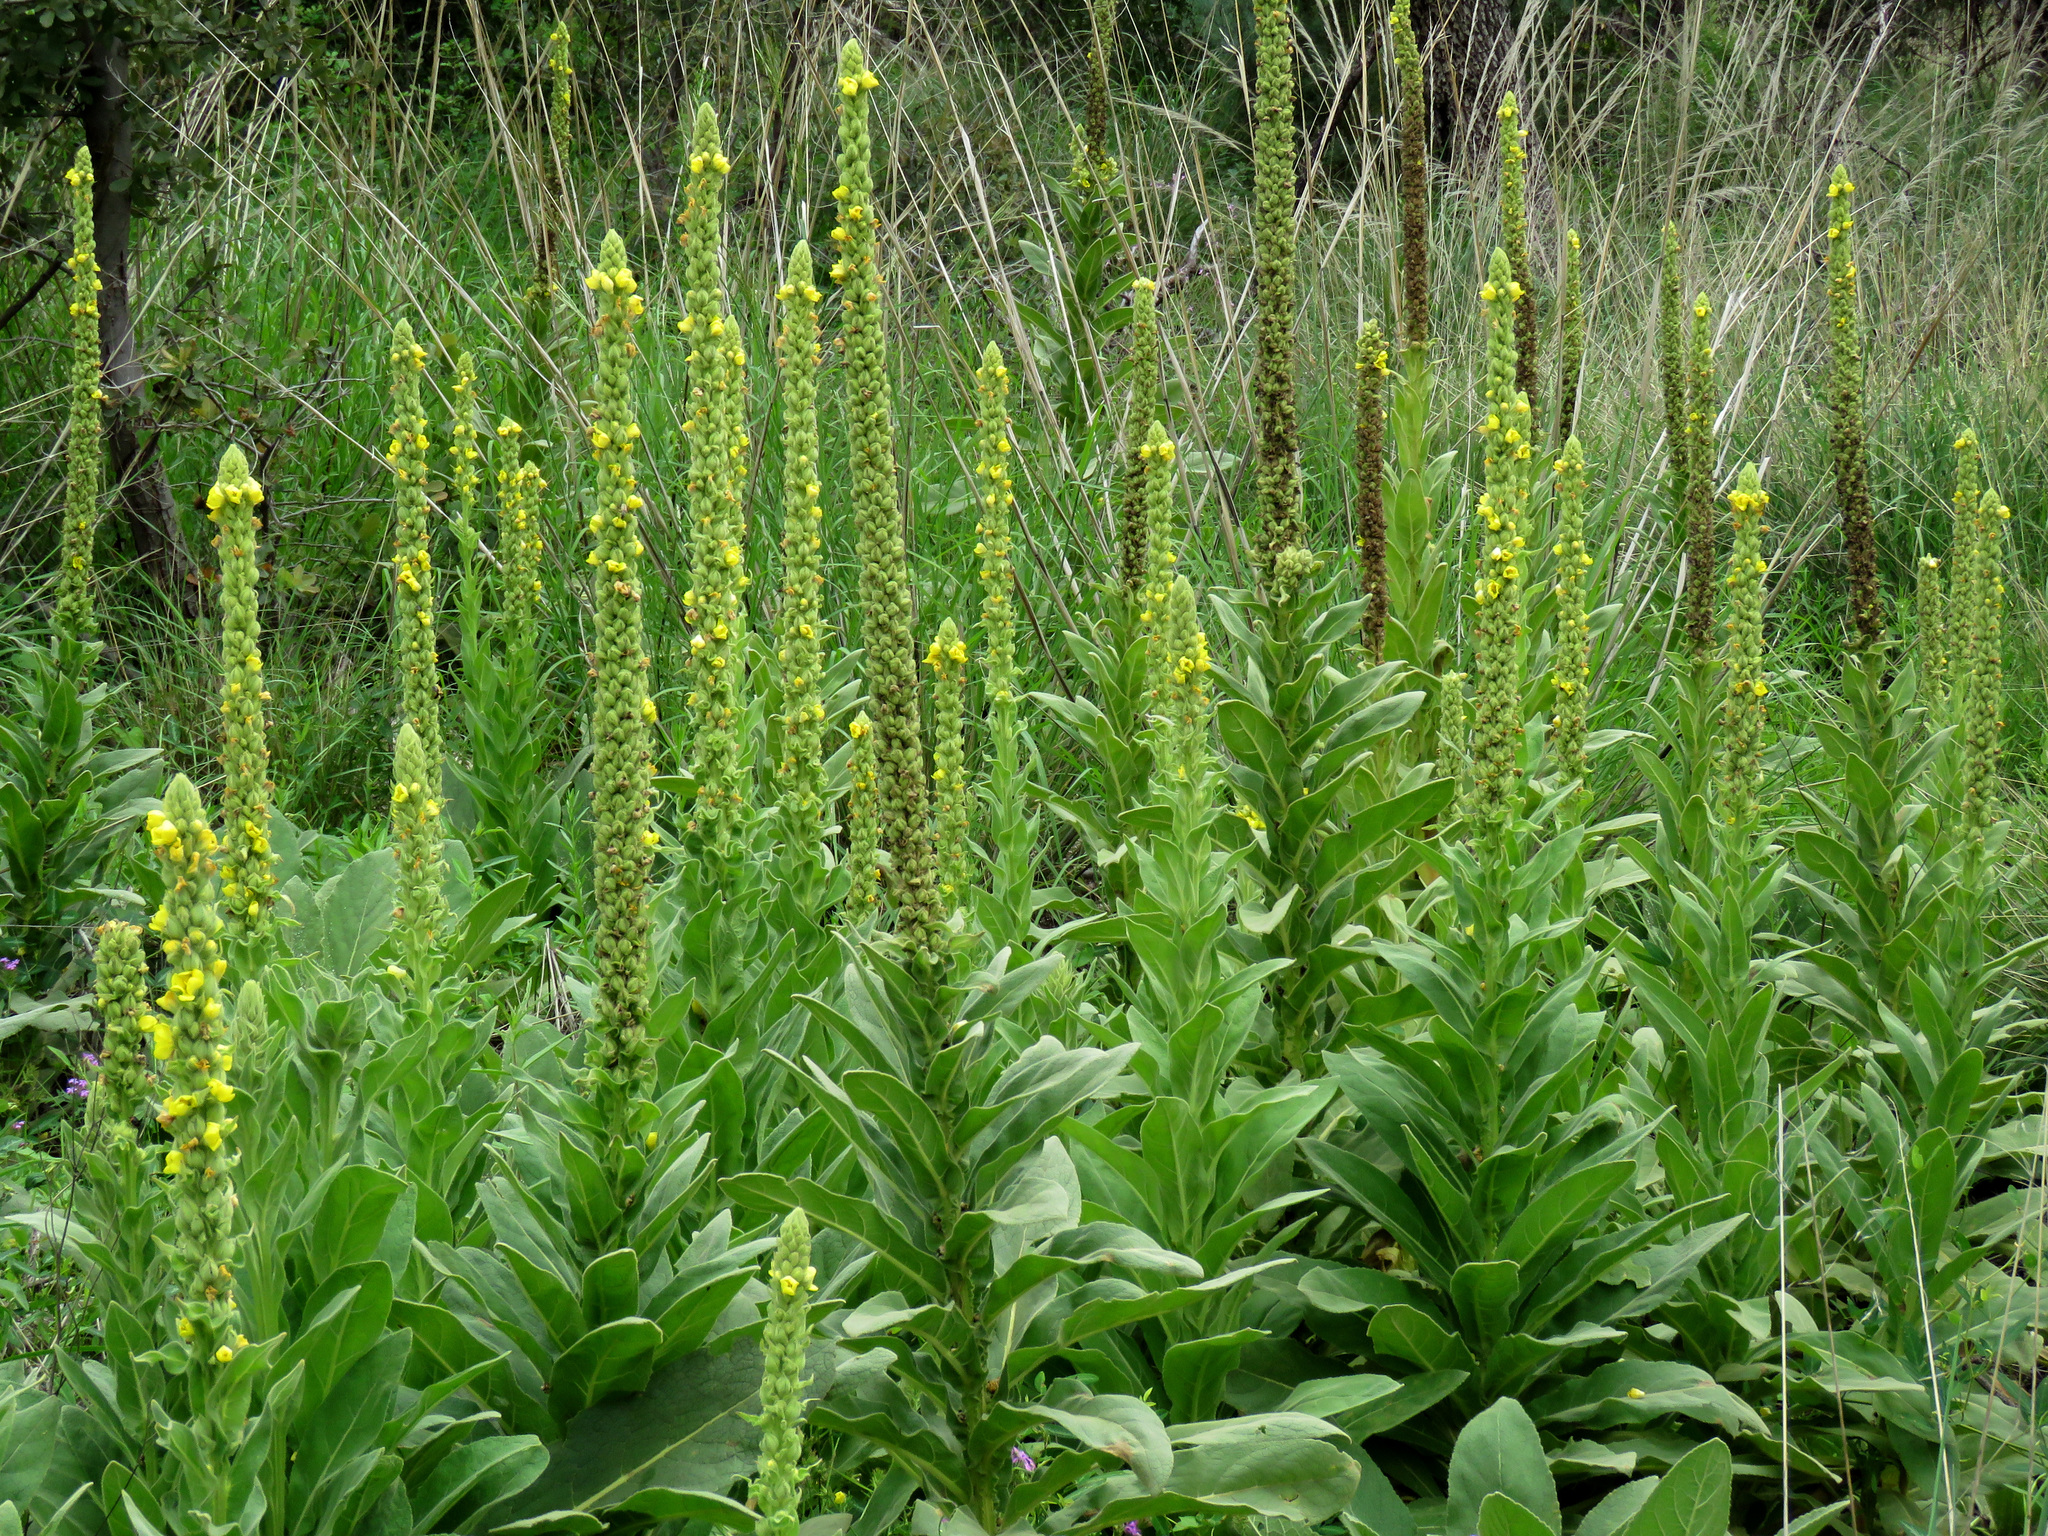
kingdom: Plantae
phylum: Tracheophyta
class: Magnoliopsida
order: Lamiales
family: Scrophulariaceae
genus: Verbascum
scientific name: Verbascum thapsus
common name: Common mullein
